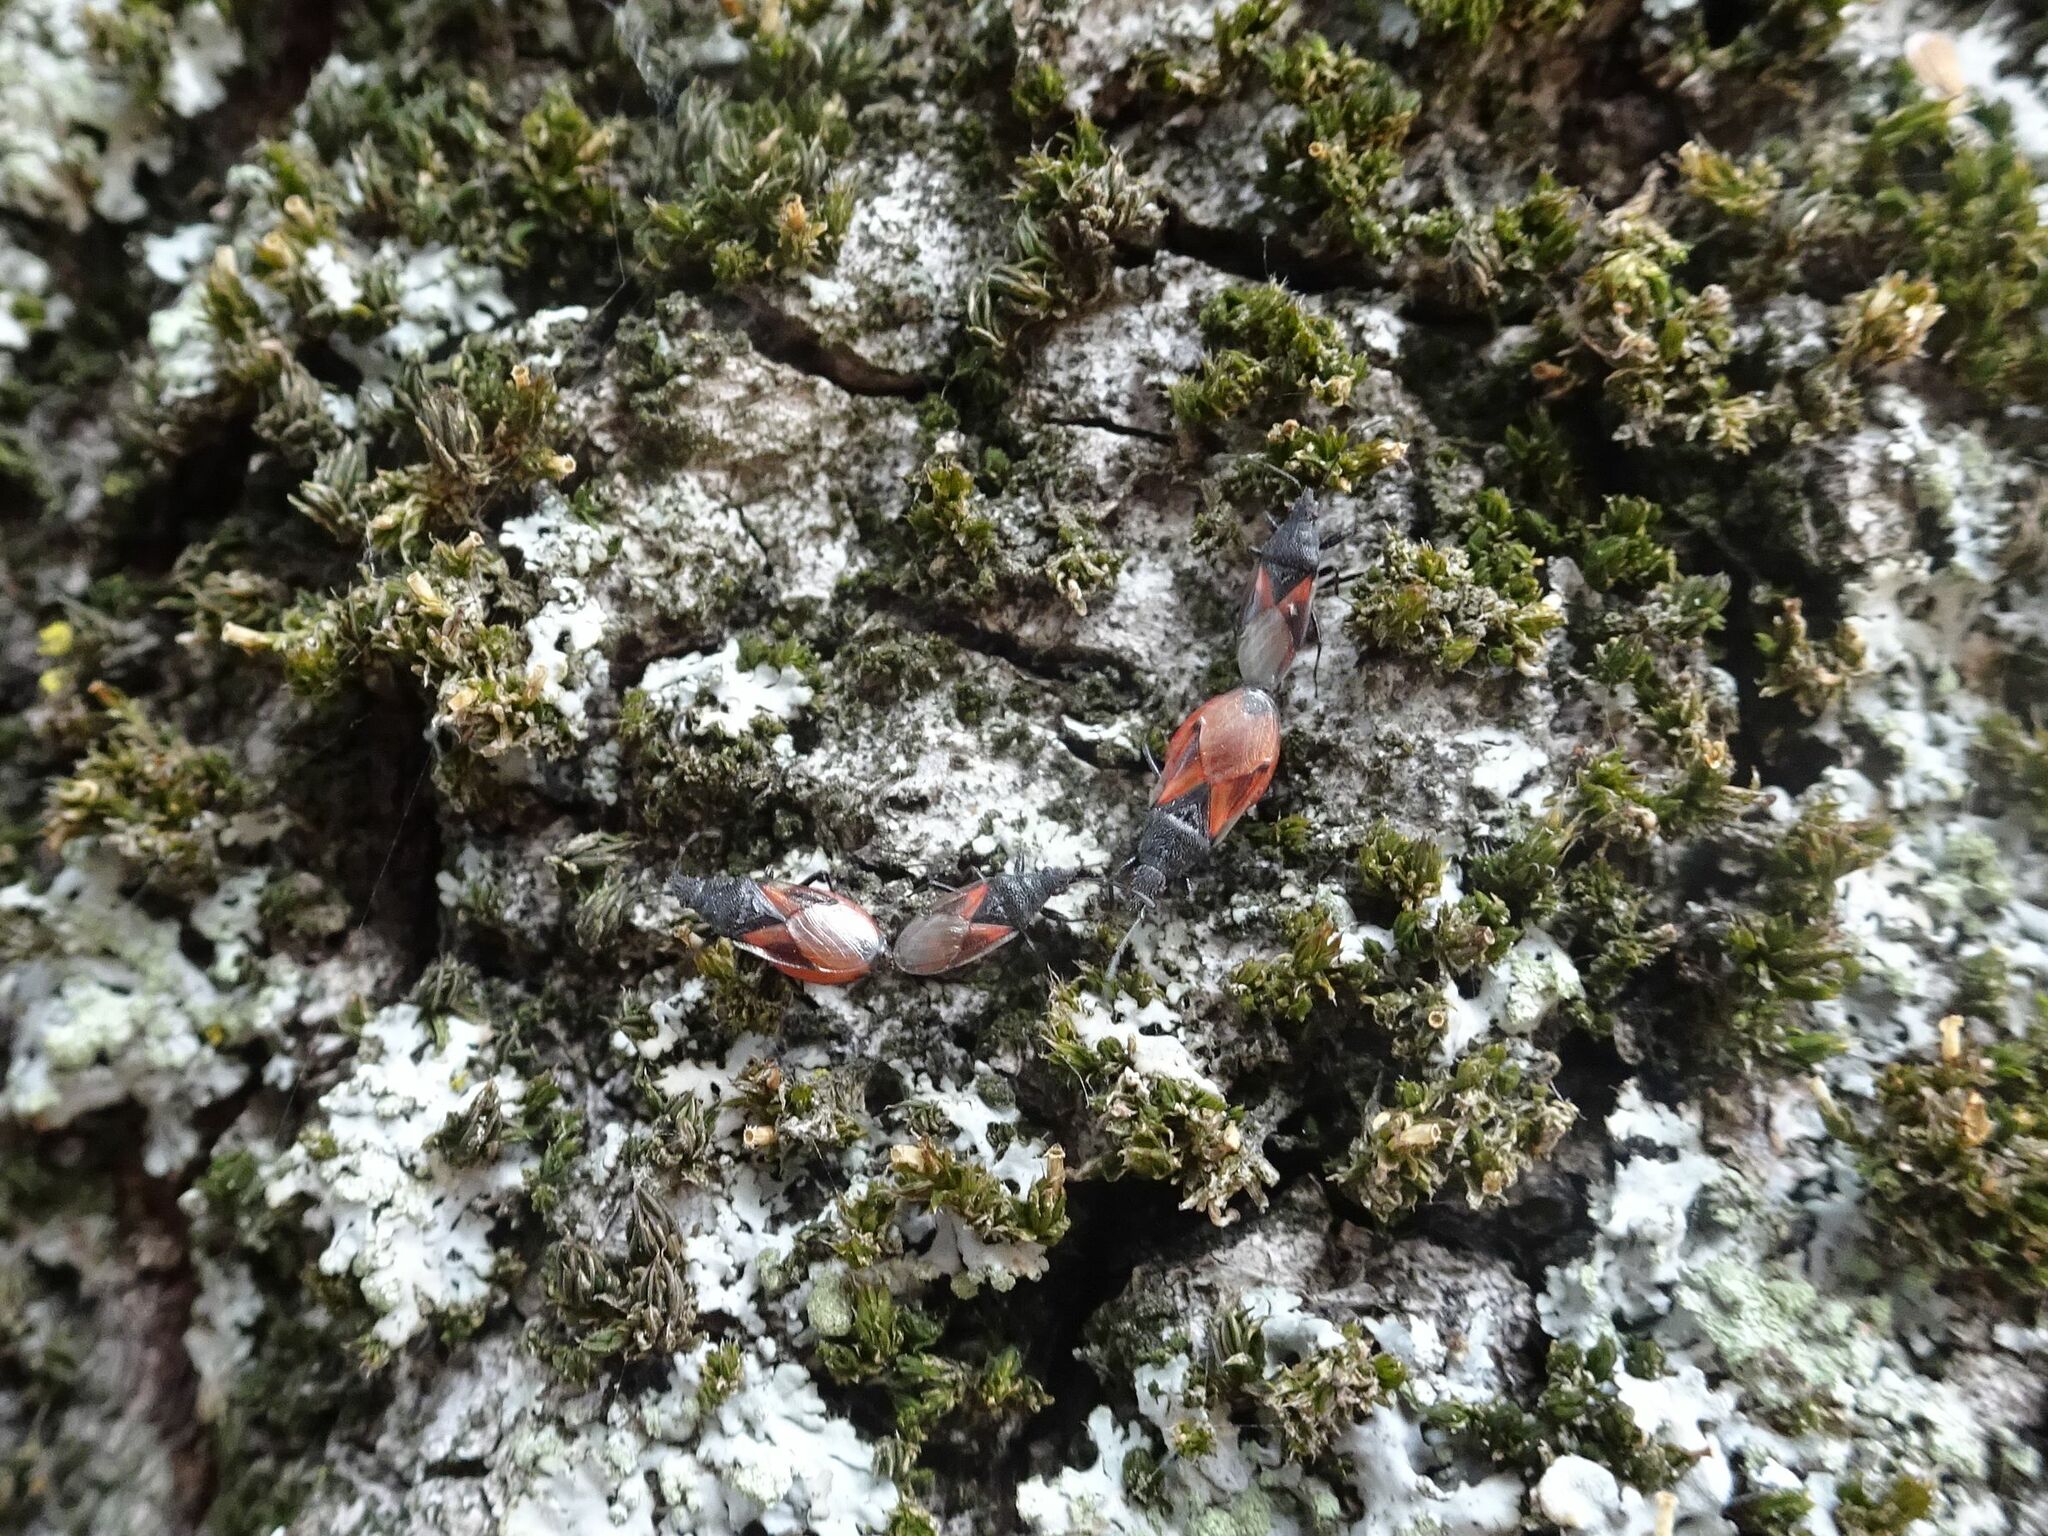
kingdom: Animalia
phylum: Arthropoda
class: Insecta
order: Hemiptera
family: Oxycarenidae
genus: Oxycarenus
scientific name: Oxycarenus lavaterae
